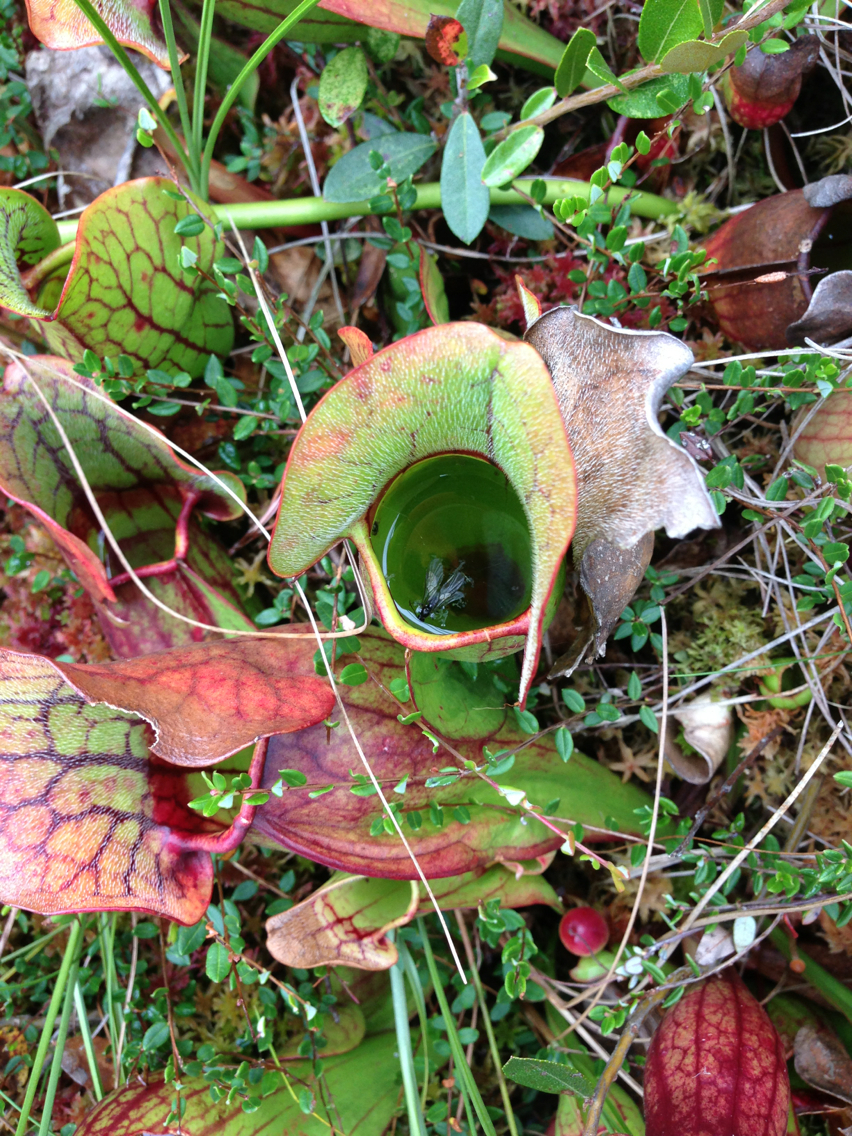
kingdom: Plantae
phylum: Tracheophyta
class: Magnoliopsida
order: Ericales
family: Sarraceniaceae
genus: Sarracenia
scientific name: Sarracenia purpurea
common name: Pitcherplant
